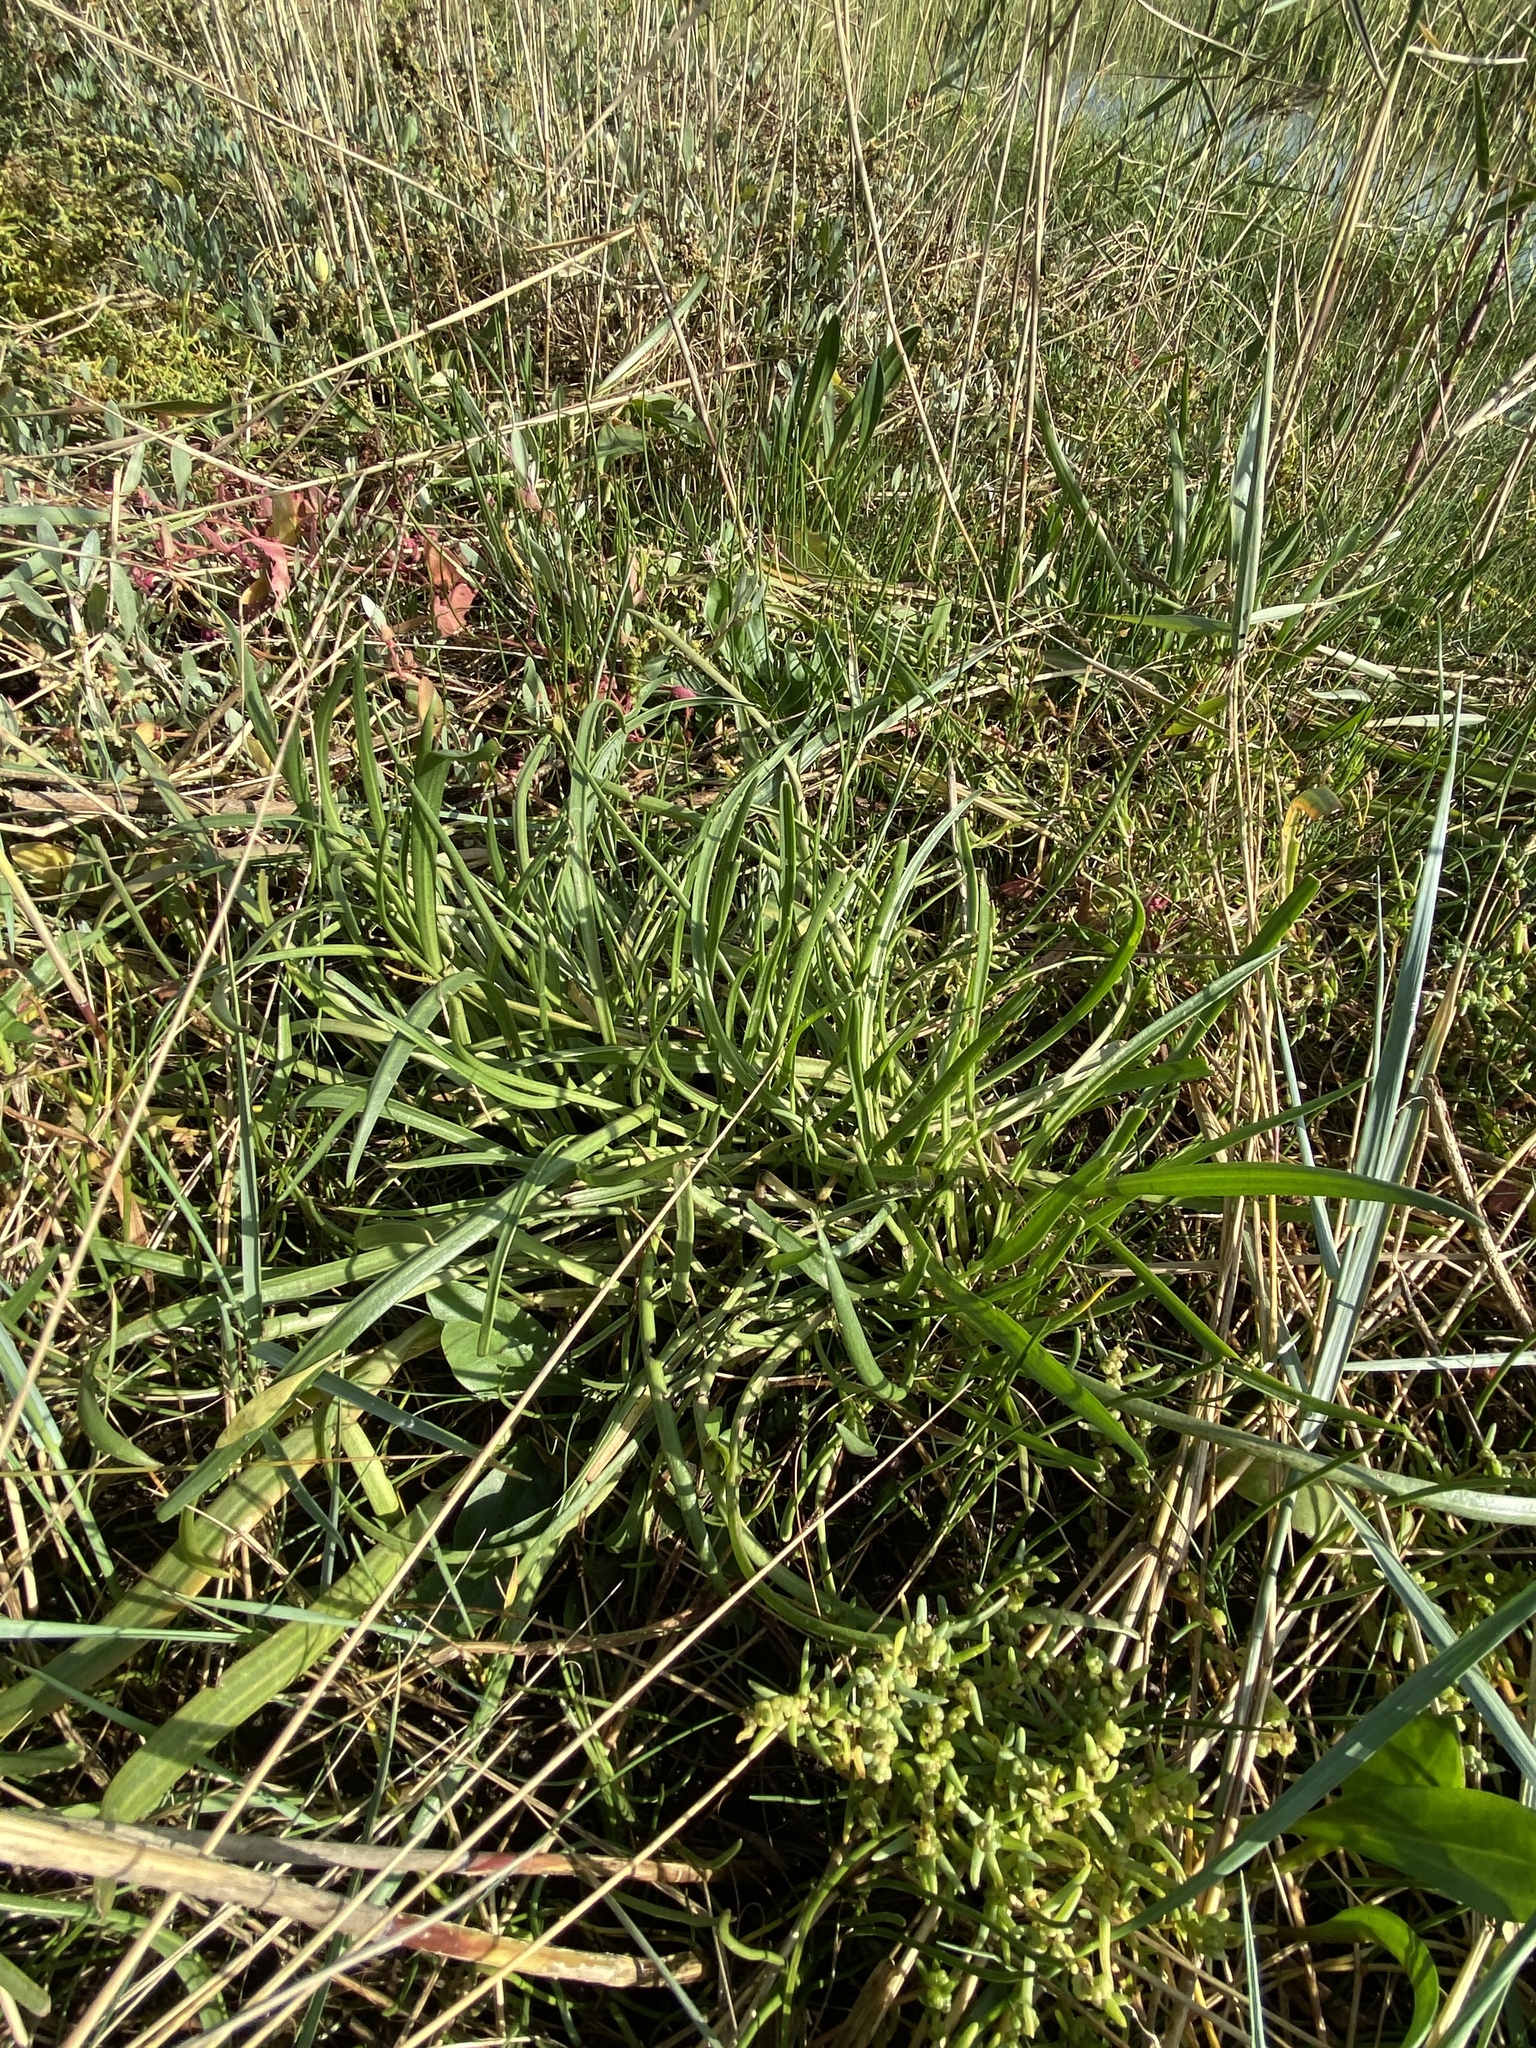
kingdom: Plantae
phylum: Tracheophyta
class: Magnoliopsida
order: Lamiales
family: Plantaginaceae
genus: Plantago
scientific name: Plantago maritima
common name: Sea plantain
